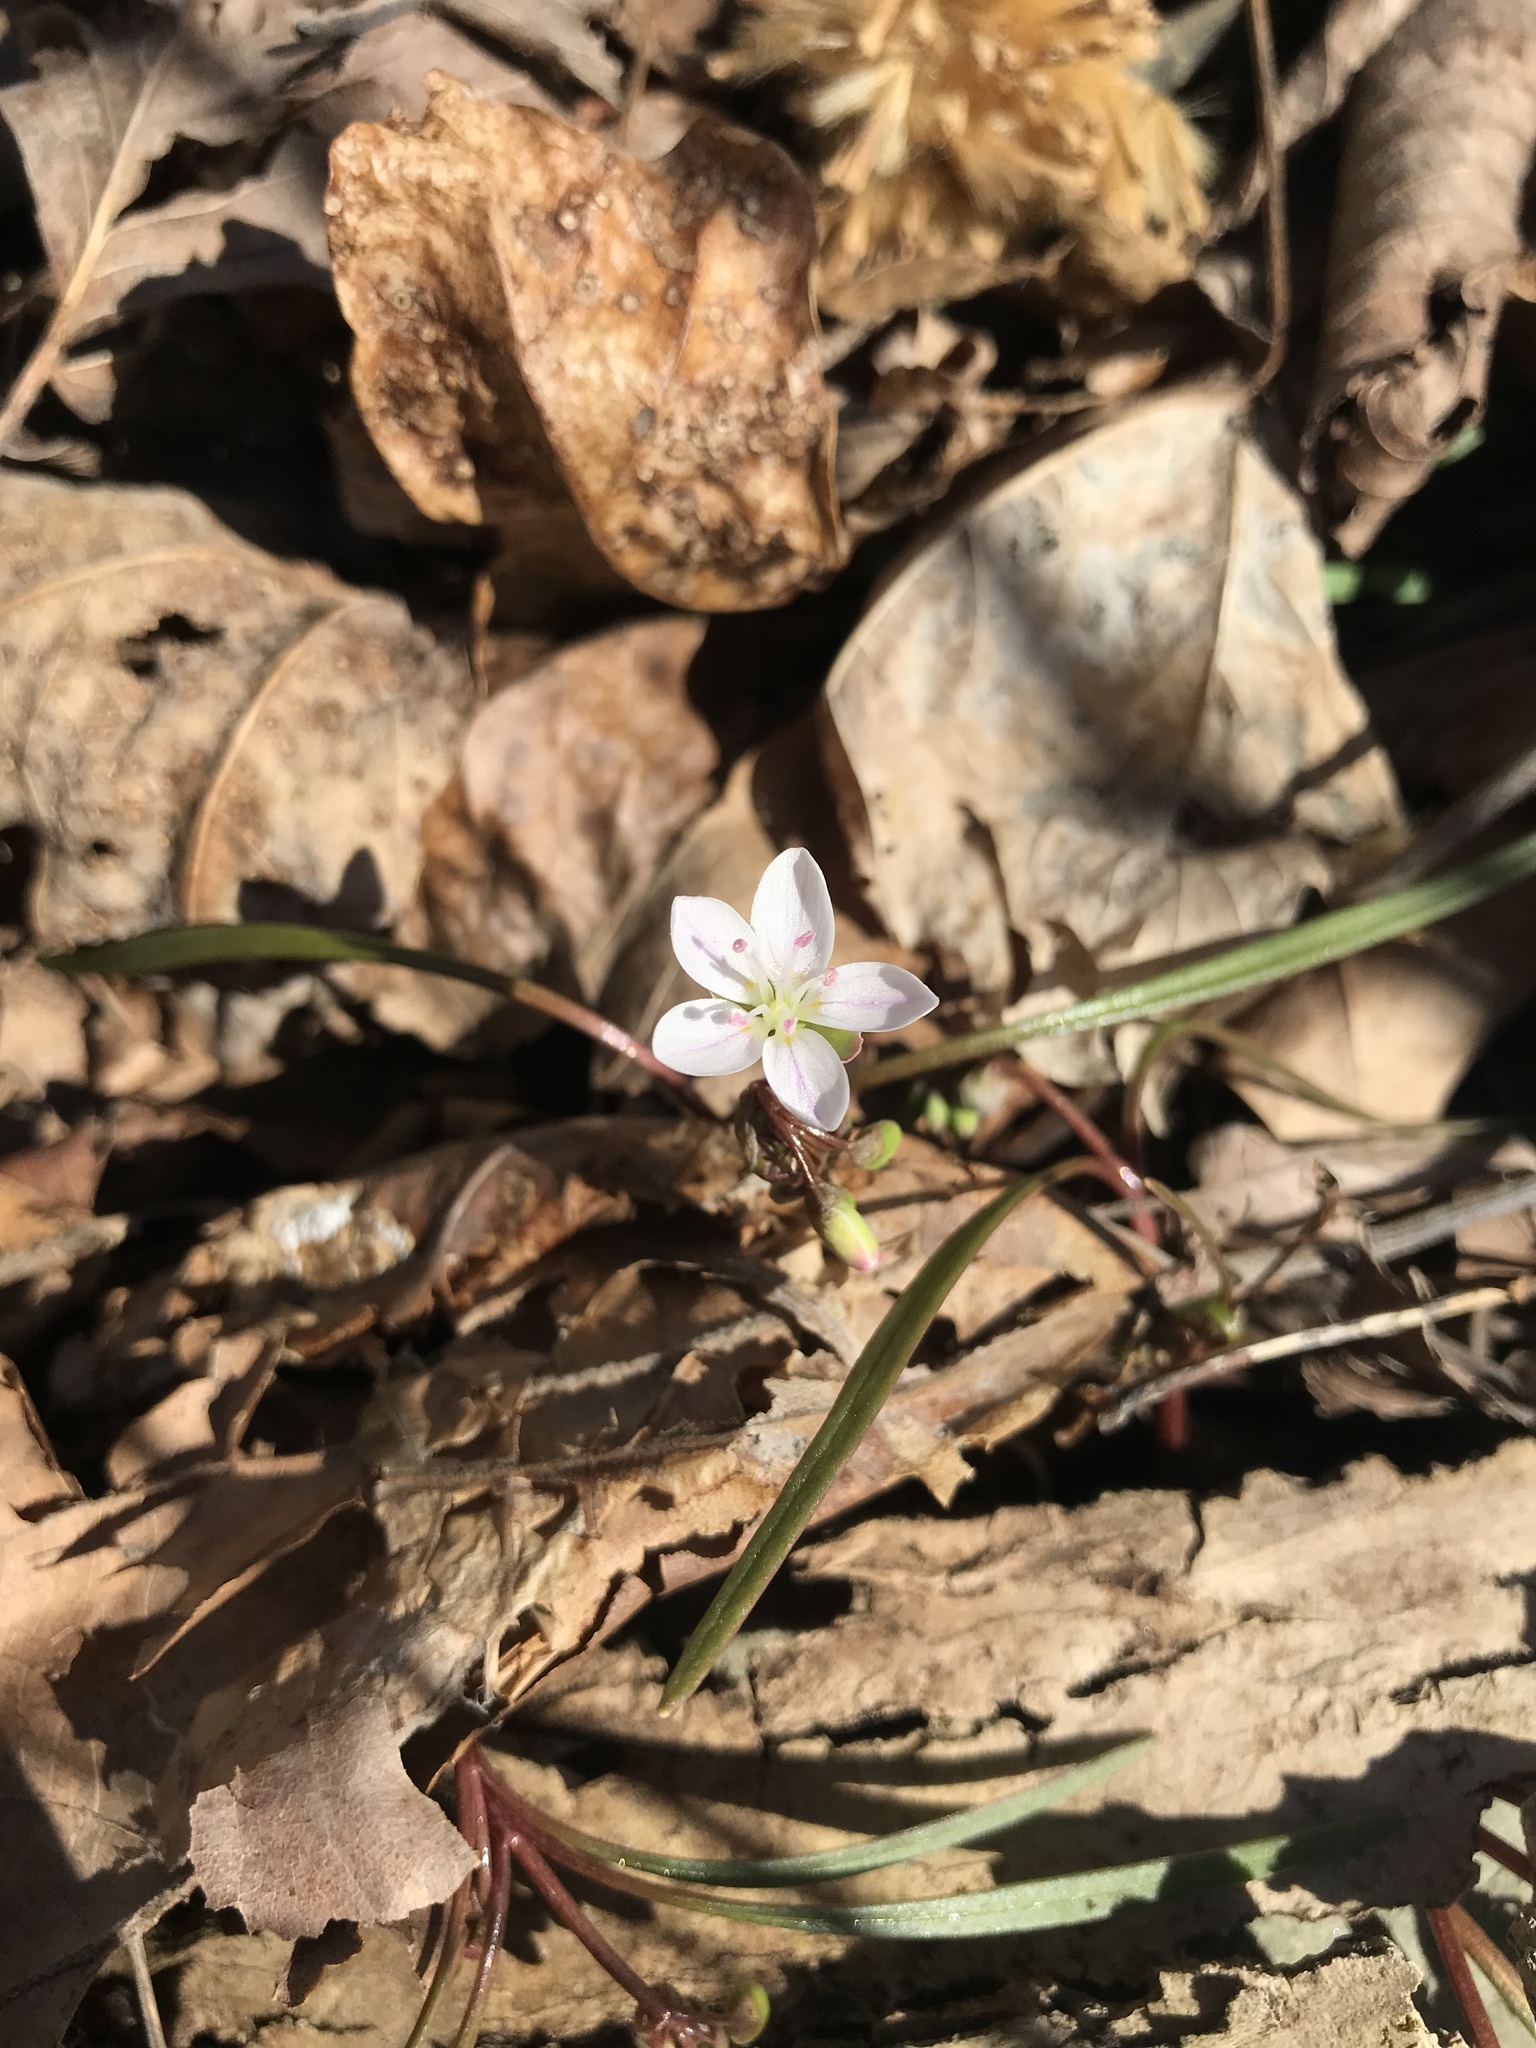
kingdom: Plantae
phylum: Tracheophyta
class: Magnoliopsida
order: Caryophyllales
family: Montiaceae
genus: Claytonia
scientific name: Claytonia virginica
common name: Virginia springbeauty
